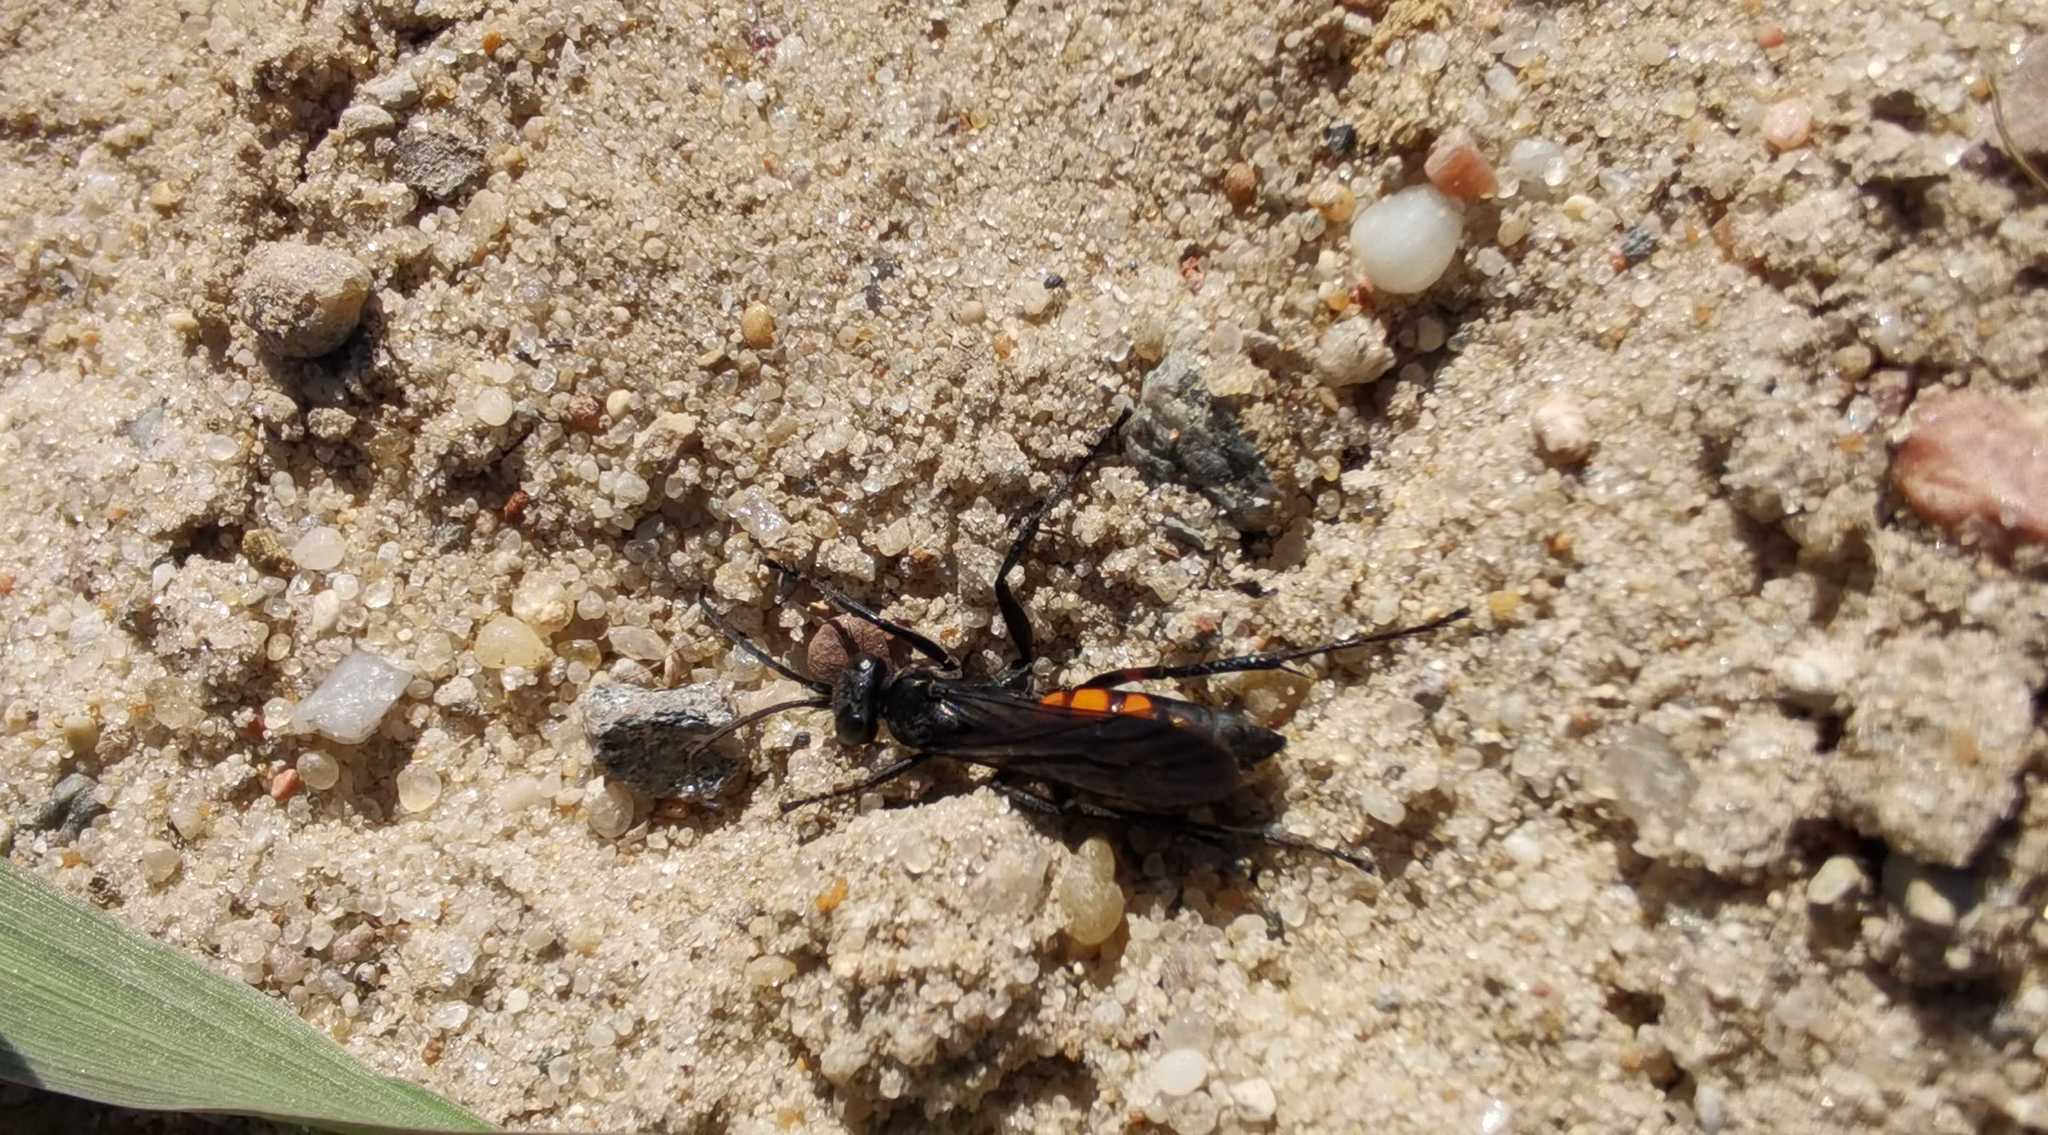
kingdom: Animalia
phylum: Arthropoda
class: Insecta
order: Hymenoptera
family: Pompilidae
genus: Anoplius
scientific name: Anoplius viaticus
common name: Black banded spider wasp
